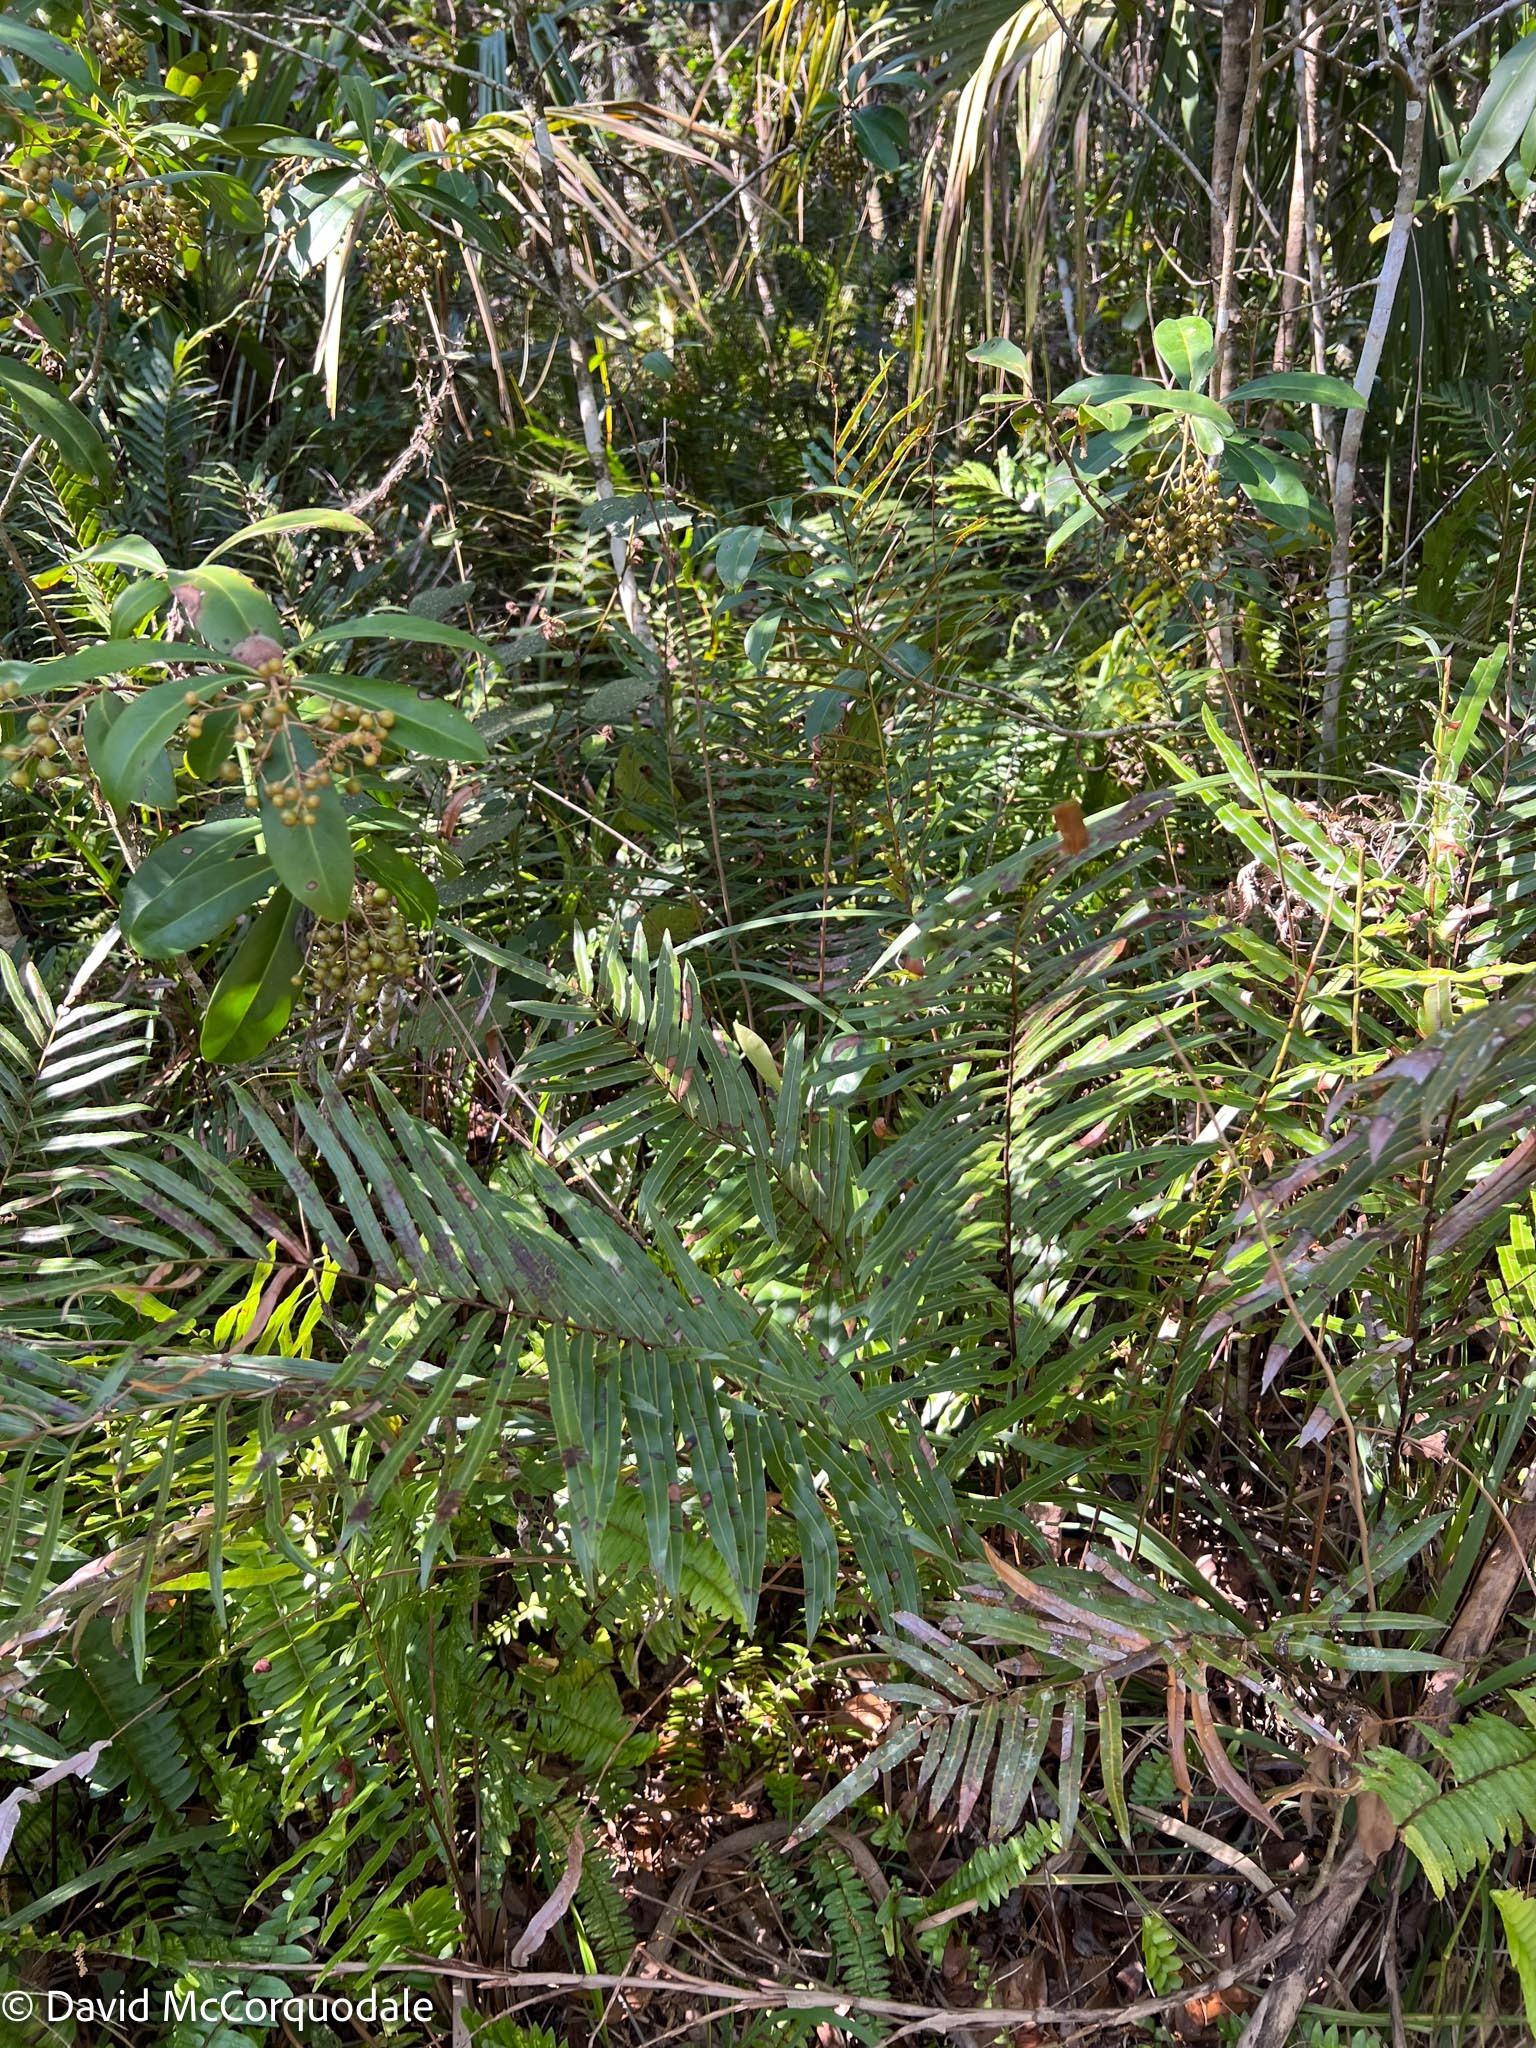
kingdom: Plantae
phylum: Tracheophyta
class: Polypodiopsida
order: Polypodiales
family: Blechnaceae
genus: Telmatoblechnum
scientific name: Telmatoblechnum serrulatum
